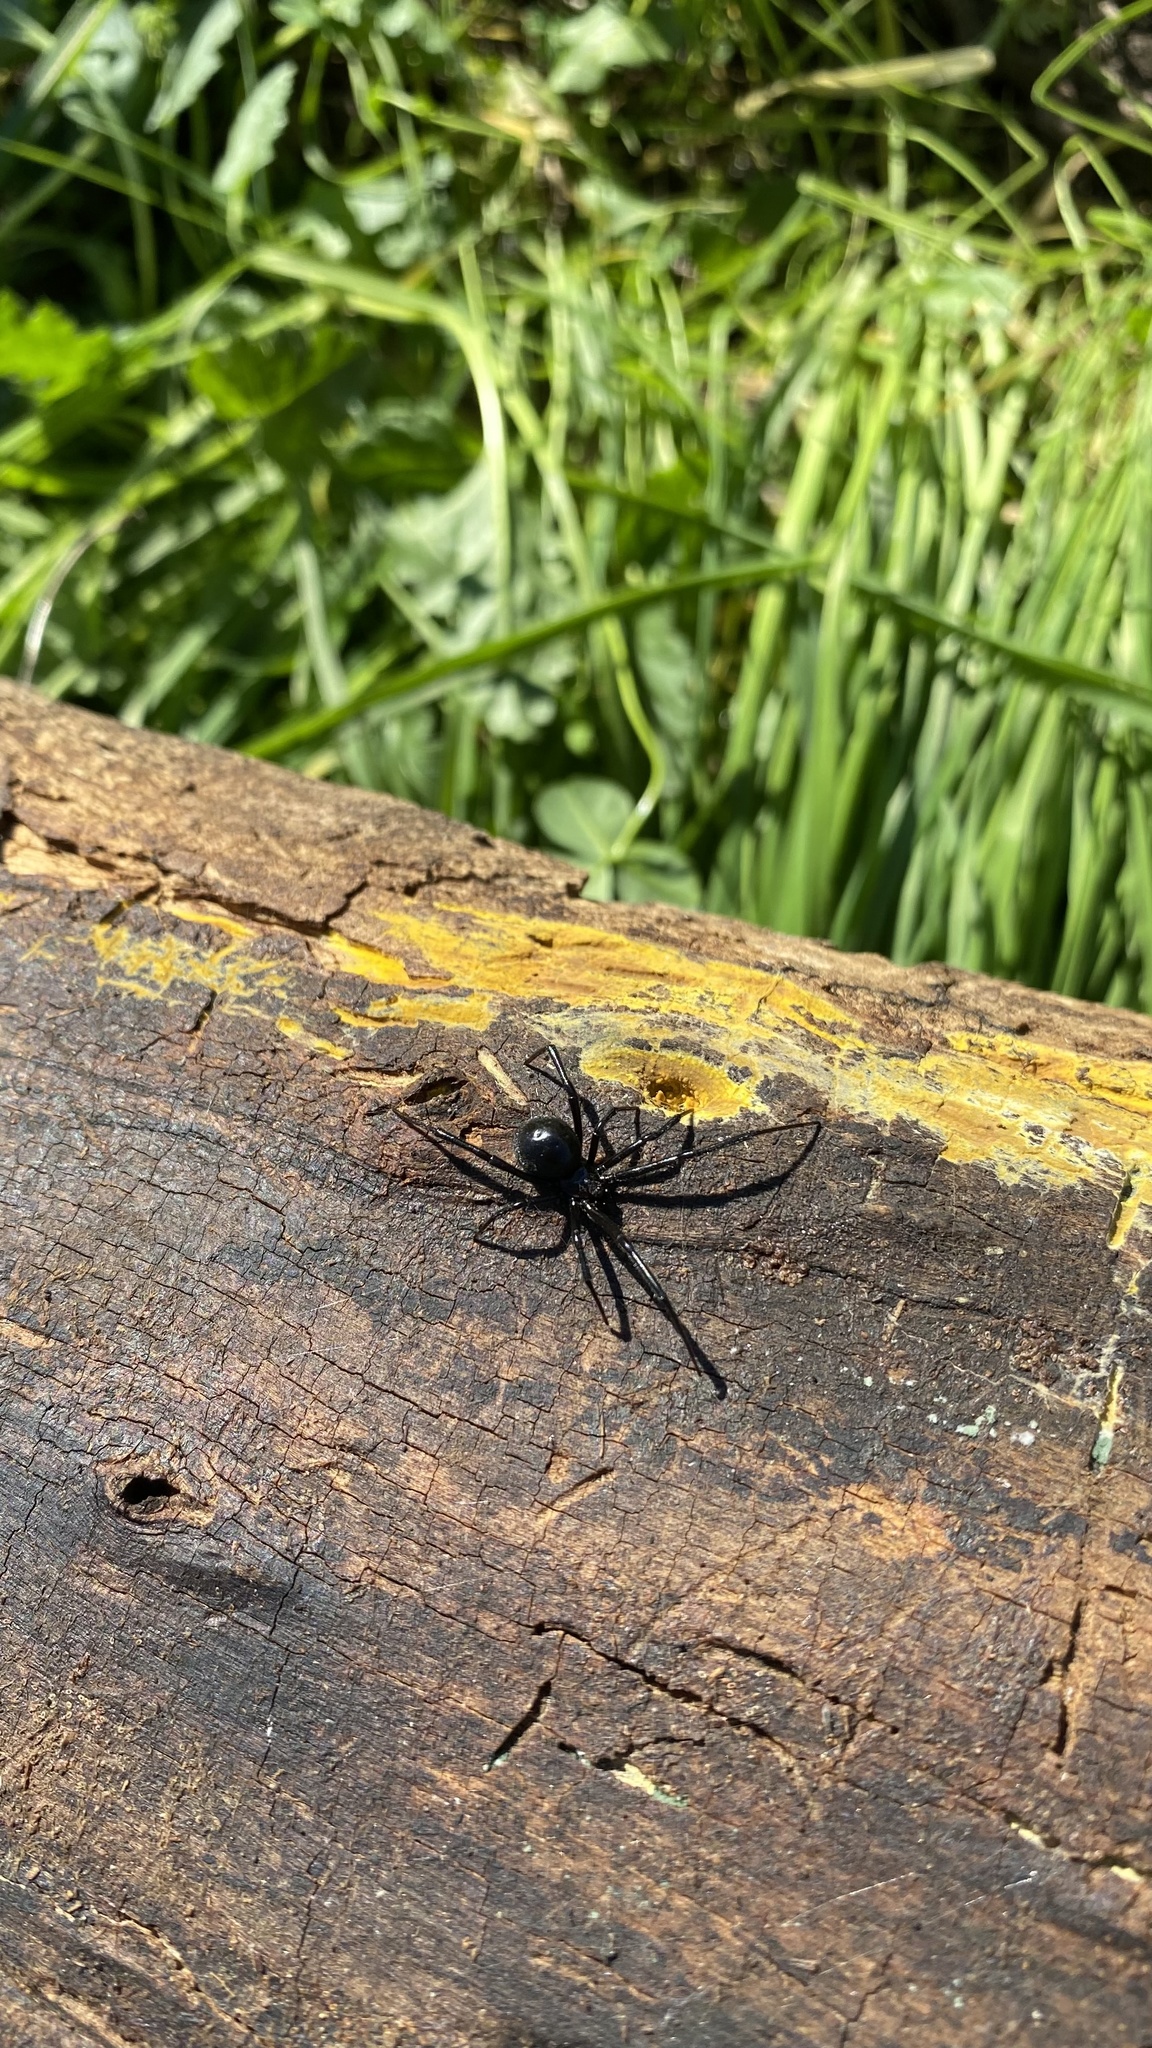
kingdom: Animalia
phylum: Arthropoda
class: Arachnida
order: Araneae
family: Theridiidae
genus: Latrodectus
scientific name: Latrodectus hesperus
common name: Western black widow
